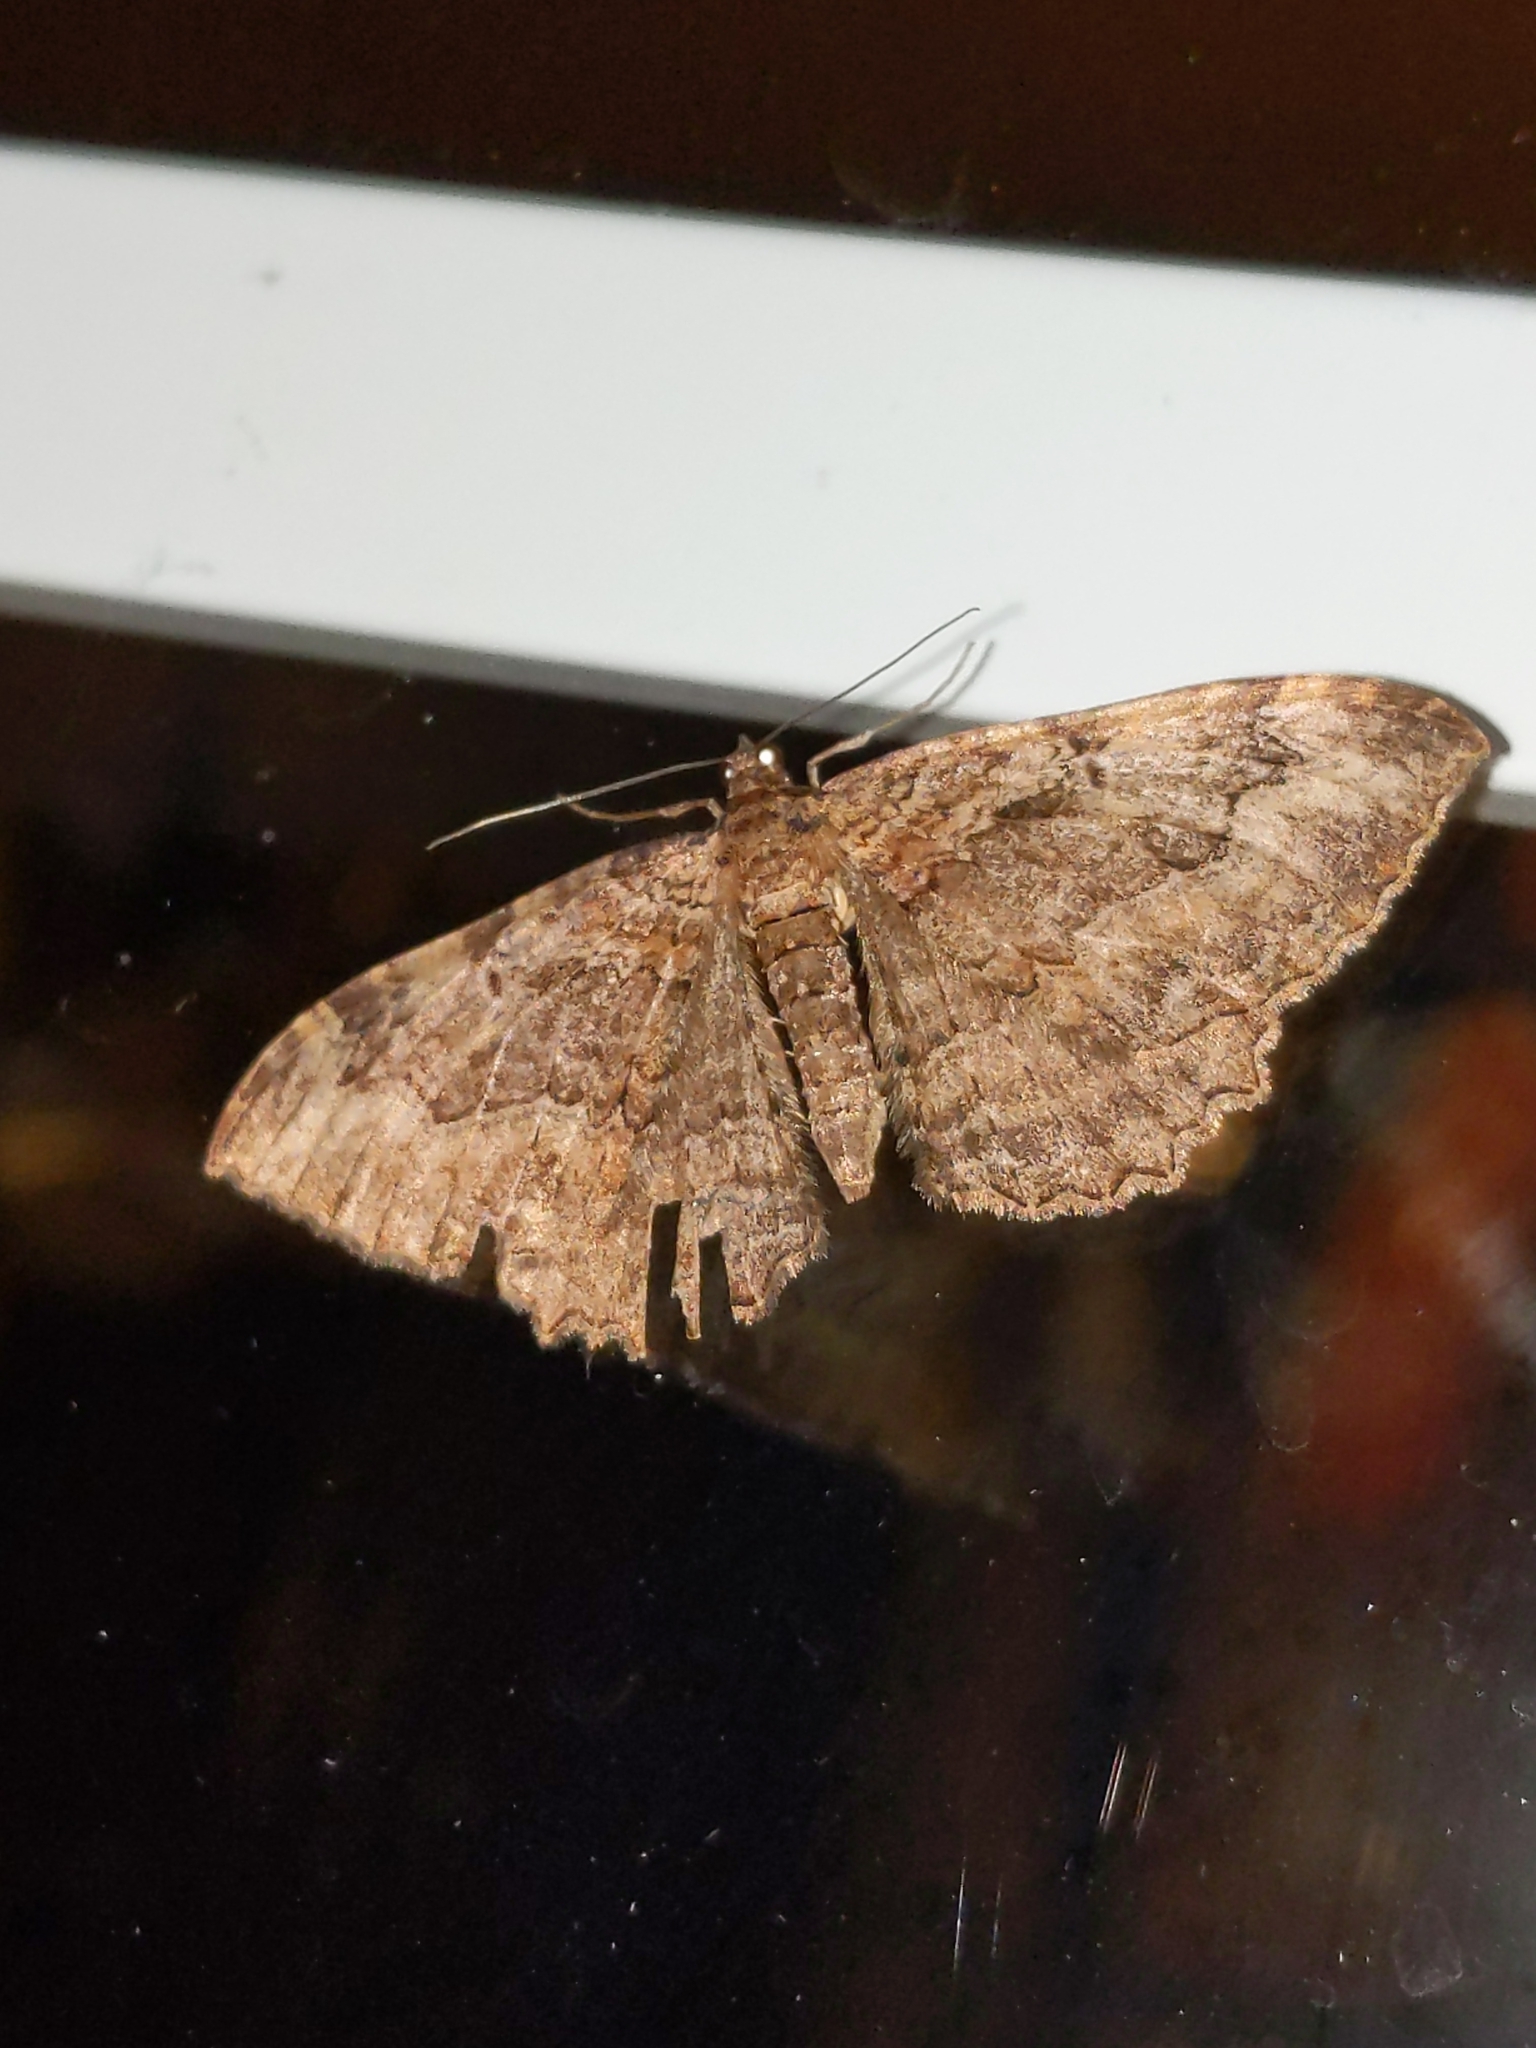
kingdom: Animalia
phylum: Arthropoda
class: Insecta
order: Lepidoptera
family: Geometridae
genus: Rheumaptera
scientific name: Rheumaptera
